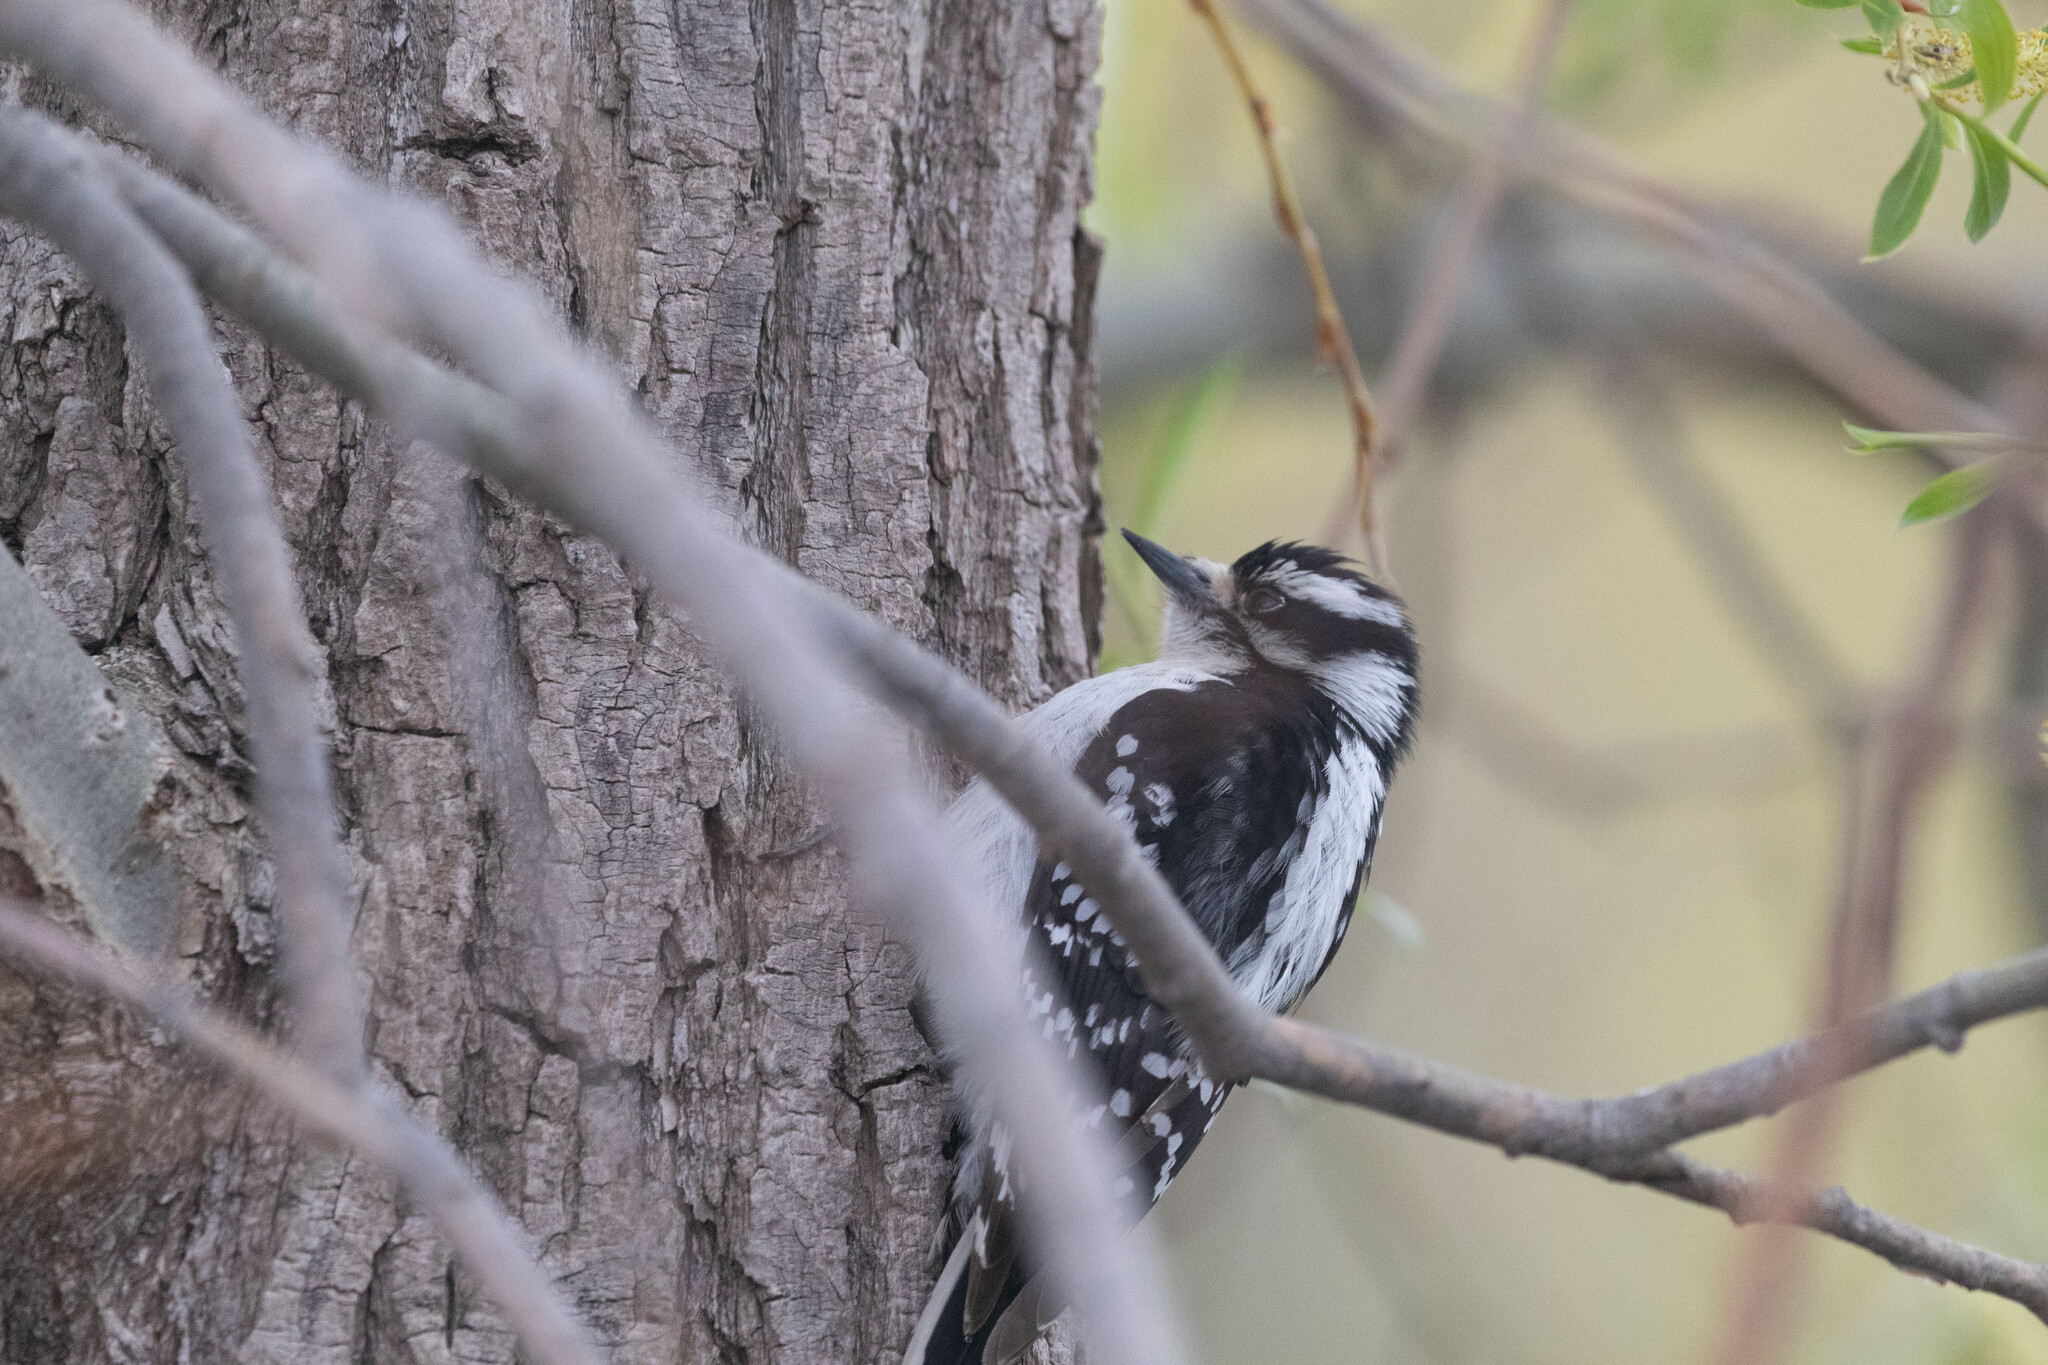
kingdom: Animalia
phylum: Chordata
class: Aves
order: Piciformes
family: Picidae
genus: Dryobates
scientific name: Dryobates pubescens
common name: Downy woodpecker
